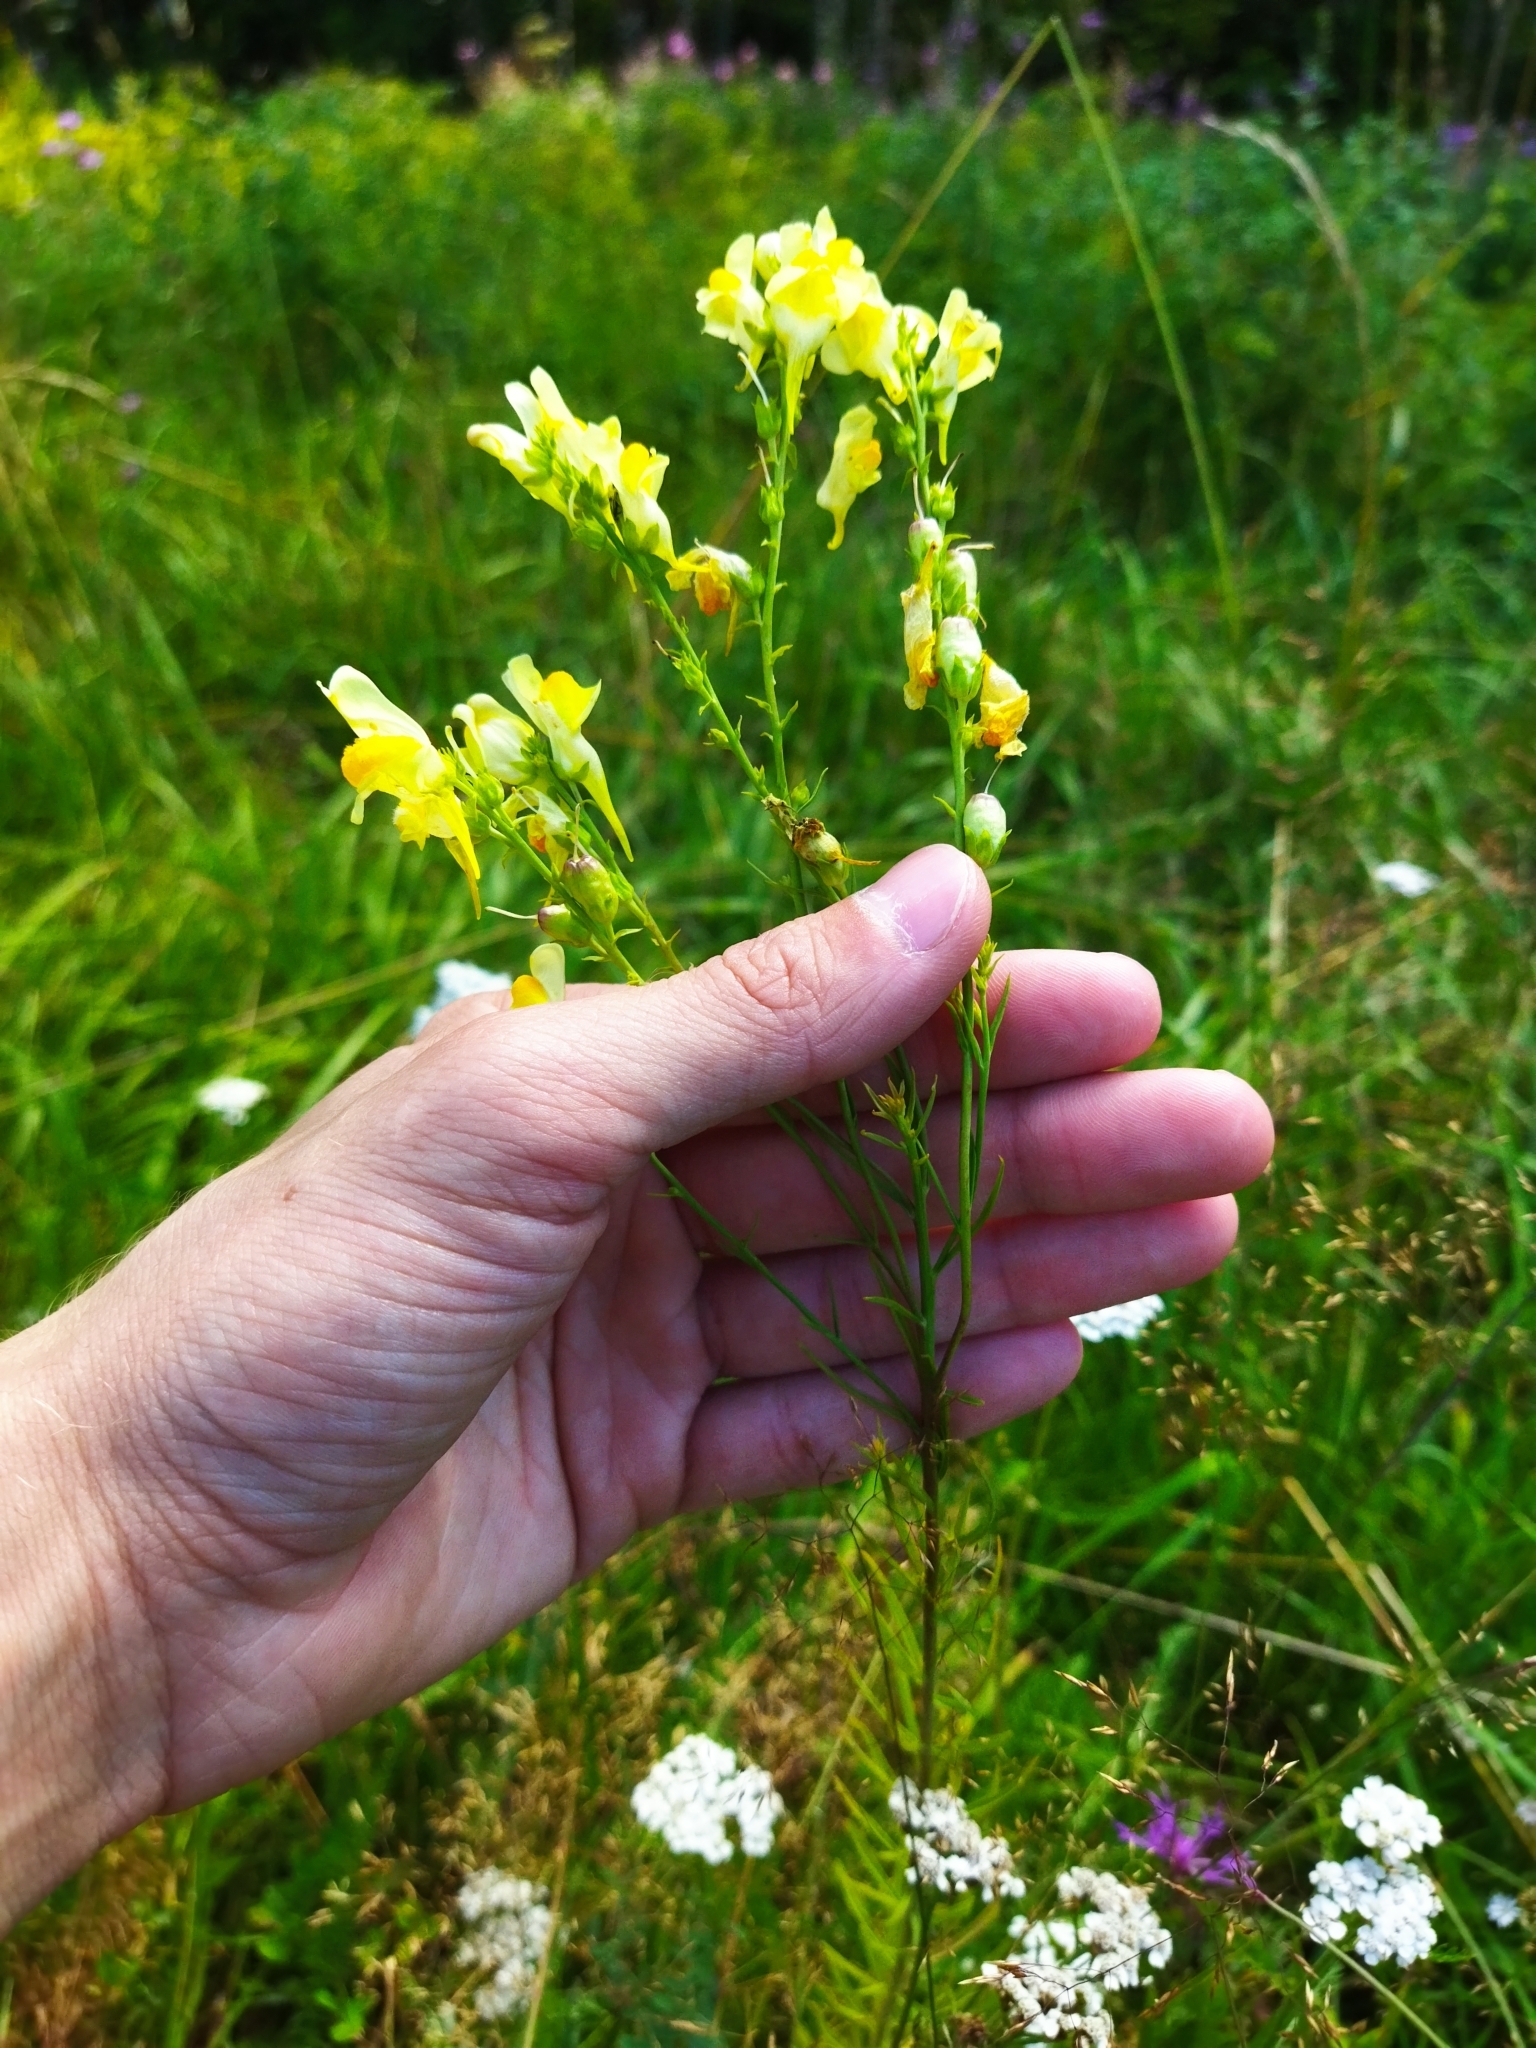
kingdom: Plantae
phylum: Tracheophyta
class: Magnoliopsida
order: Lamiales
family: Plantaginaceae
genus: Linaria
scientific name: Linaria vulgaris
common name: Butter and eggs
